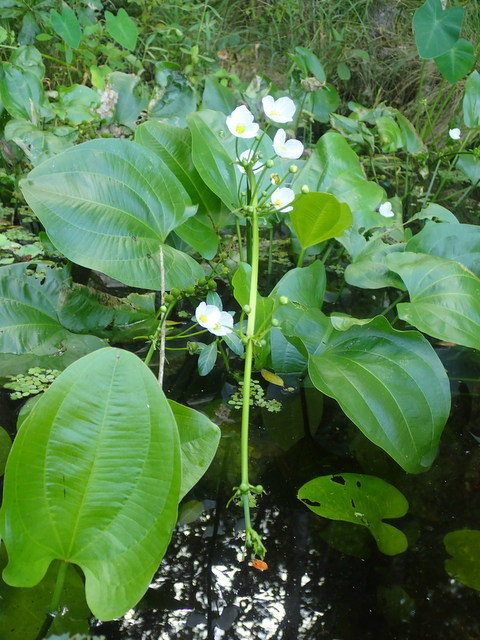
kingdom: Plantae
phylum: Tracheophyta
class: Liliopsida
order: Alismatales
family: Alismataceae
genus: Aquarius
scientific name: Aquarius cordifolius
